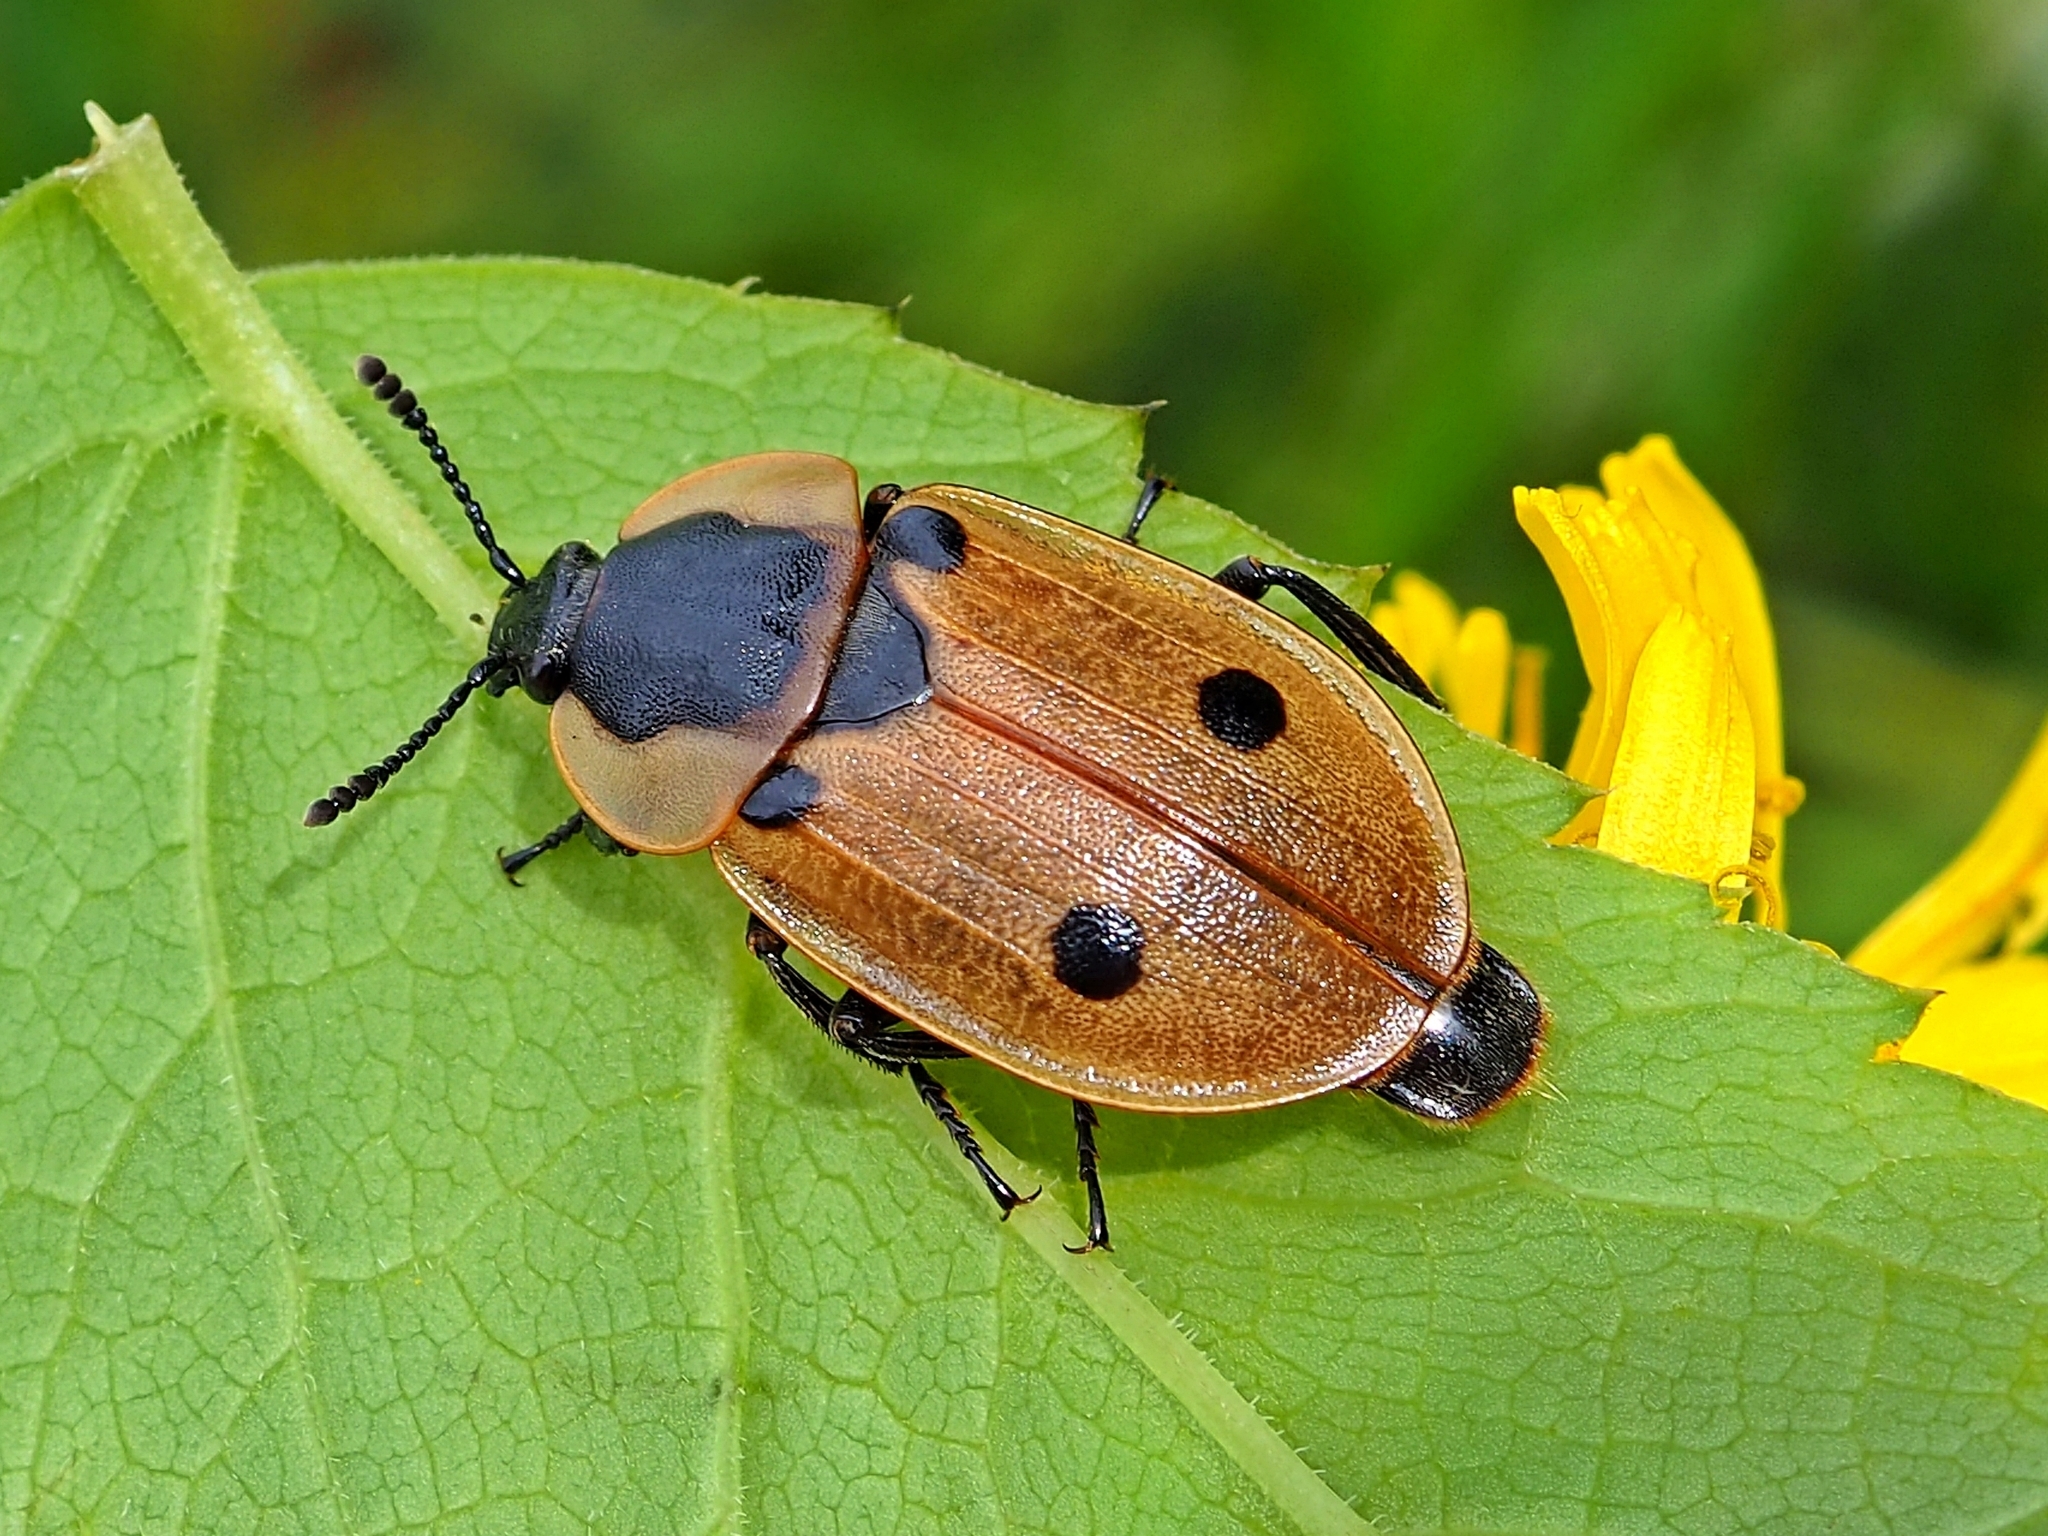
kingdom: Animalia
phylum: Arthropoda
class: Insecta
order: Coleoptera
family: Staphylinidae
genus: Dendroxena
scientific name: Dendroxena quadrimaculata
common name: Carrion beetle
